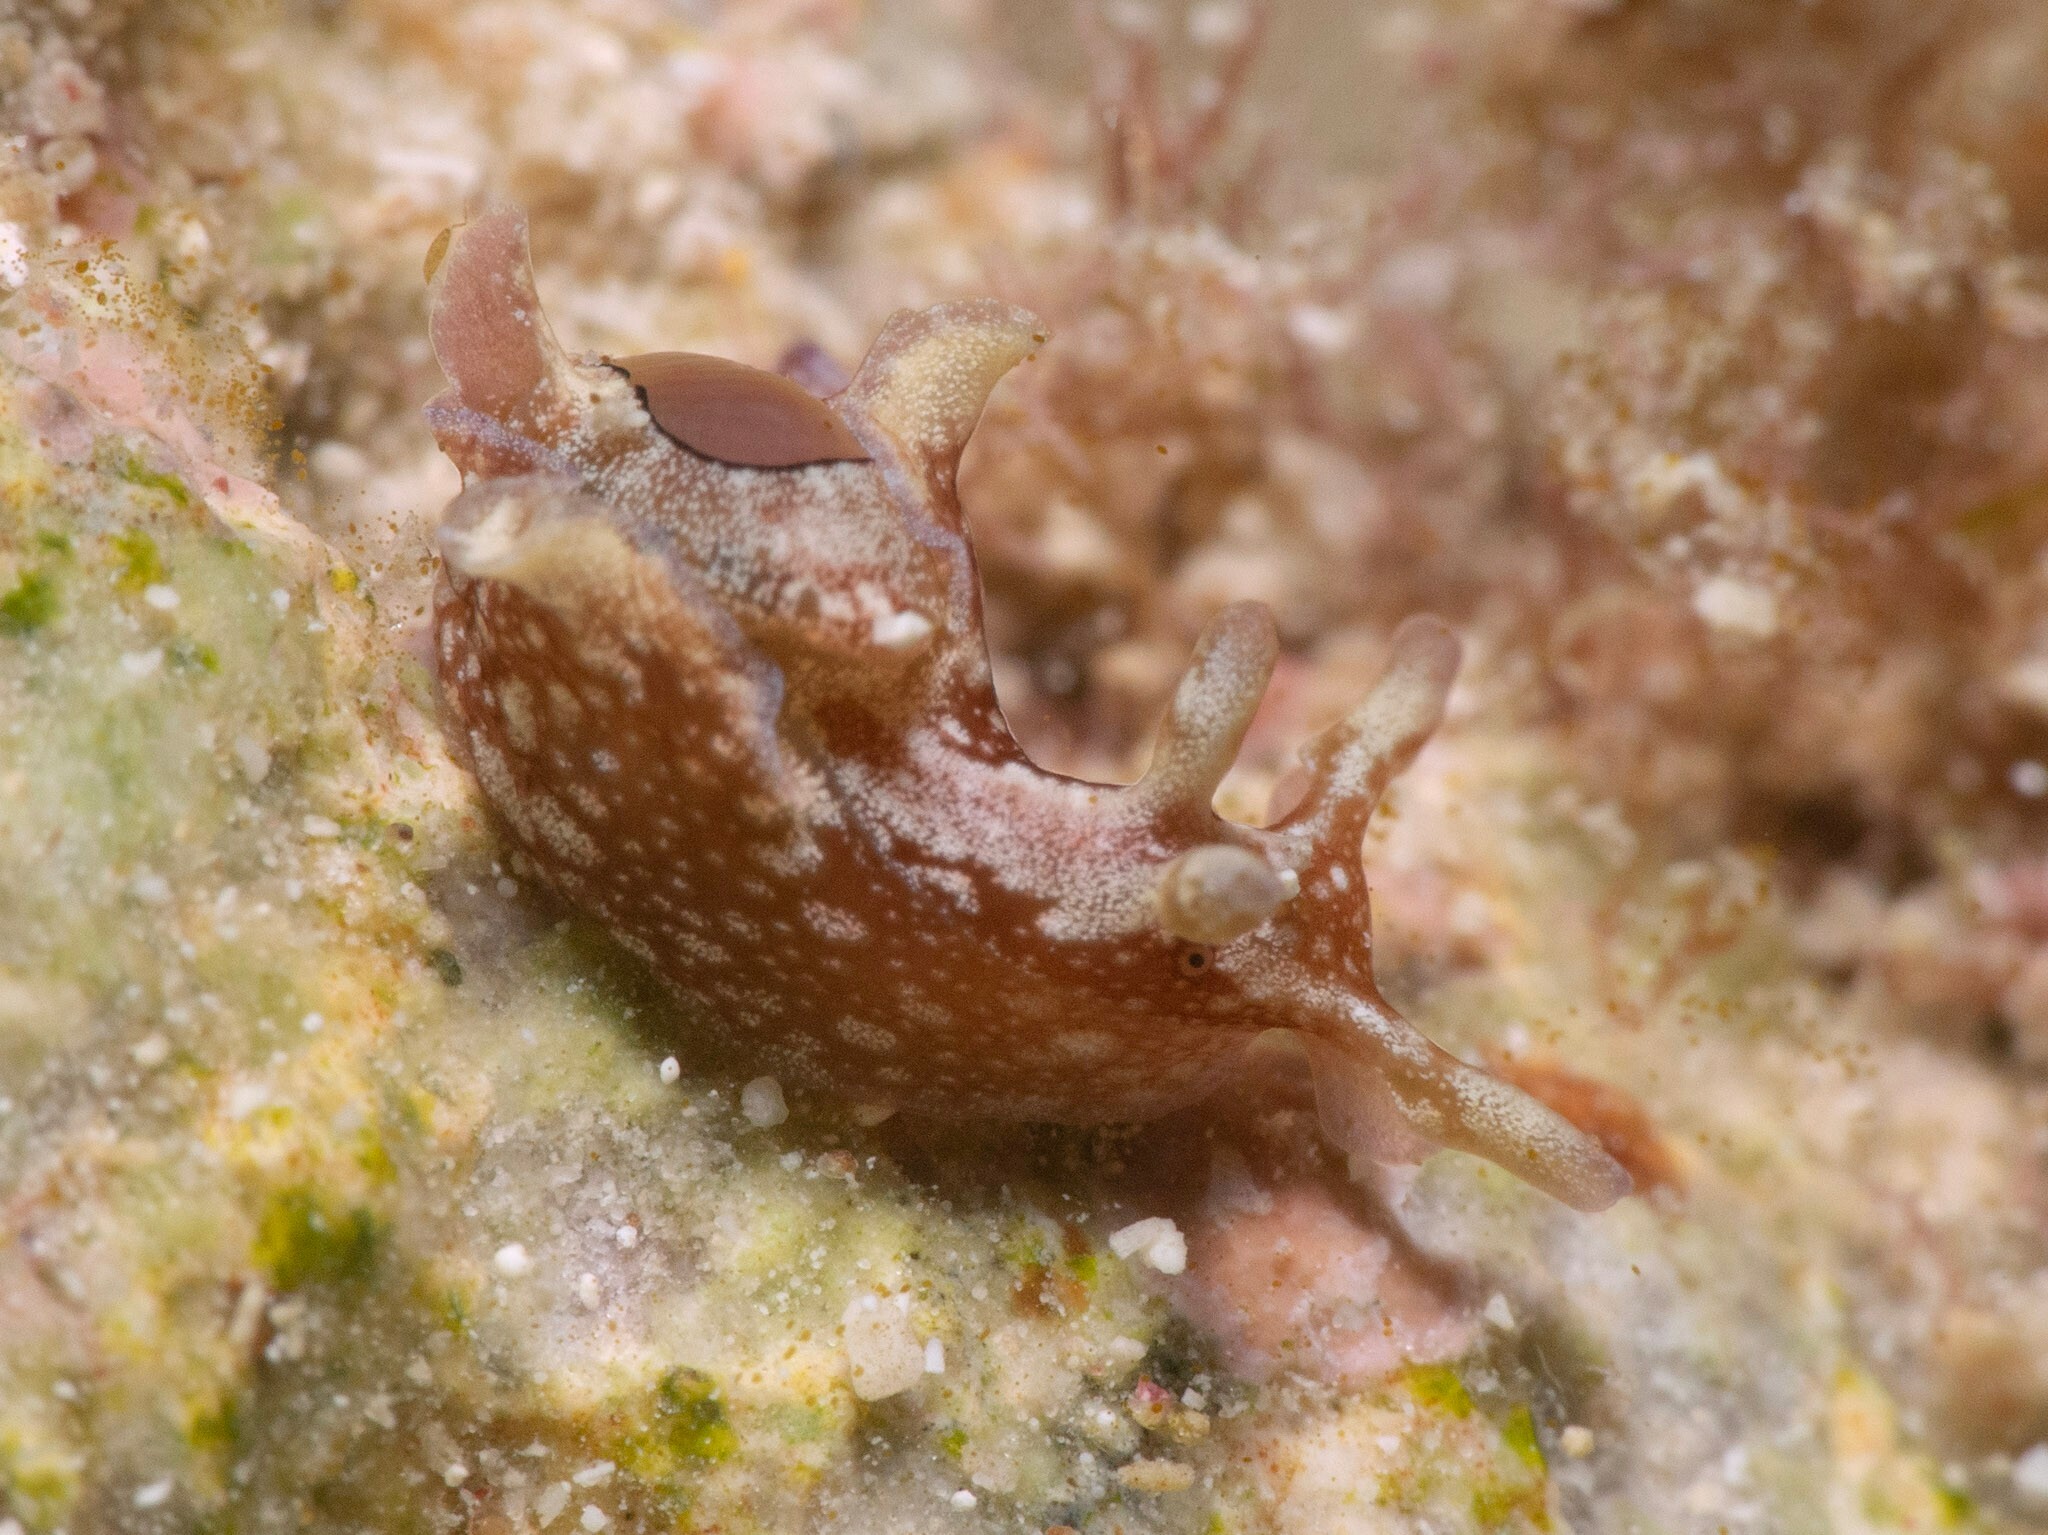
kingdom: Animalia
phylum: Mollusca
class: Gastropoda
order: Aplysiida
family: Aplysiidae
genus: Aplysia
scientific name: Aplysia parvula
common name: Dwarf sea hare
